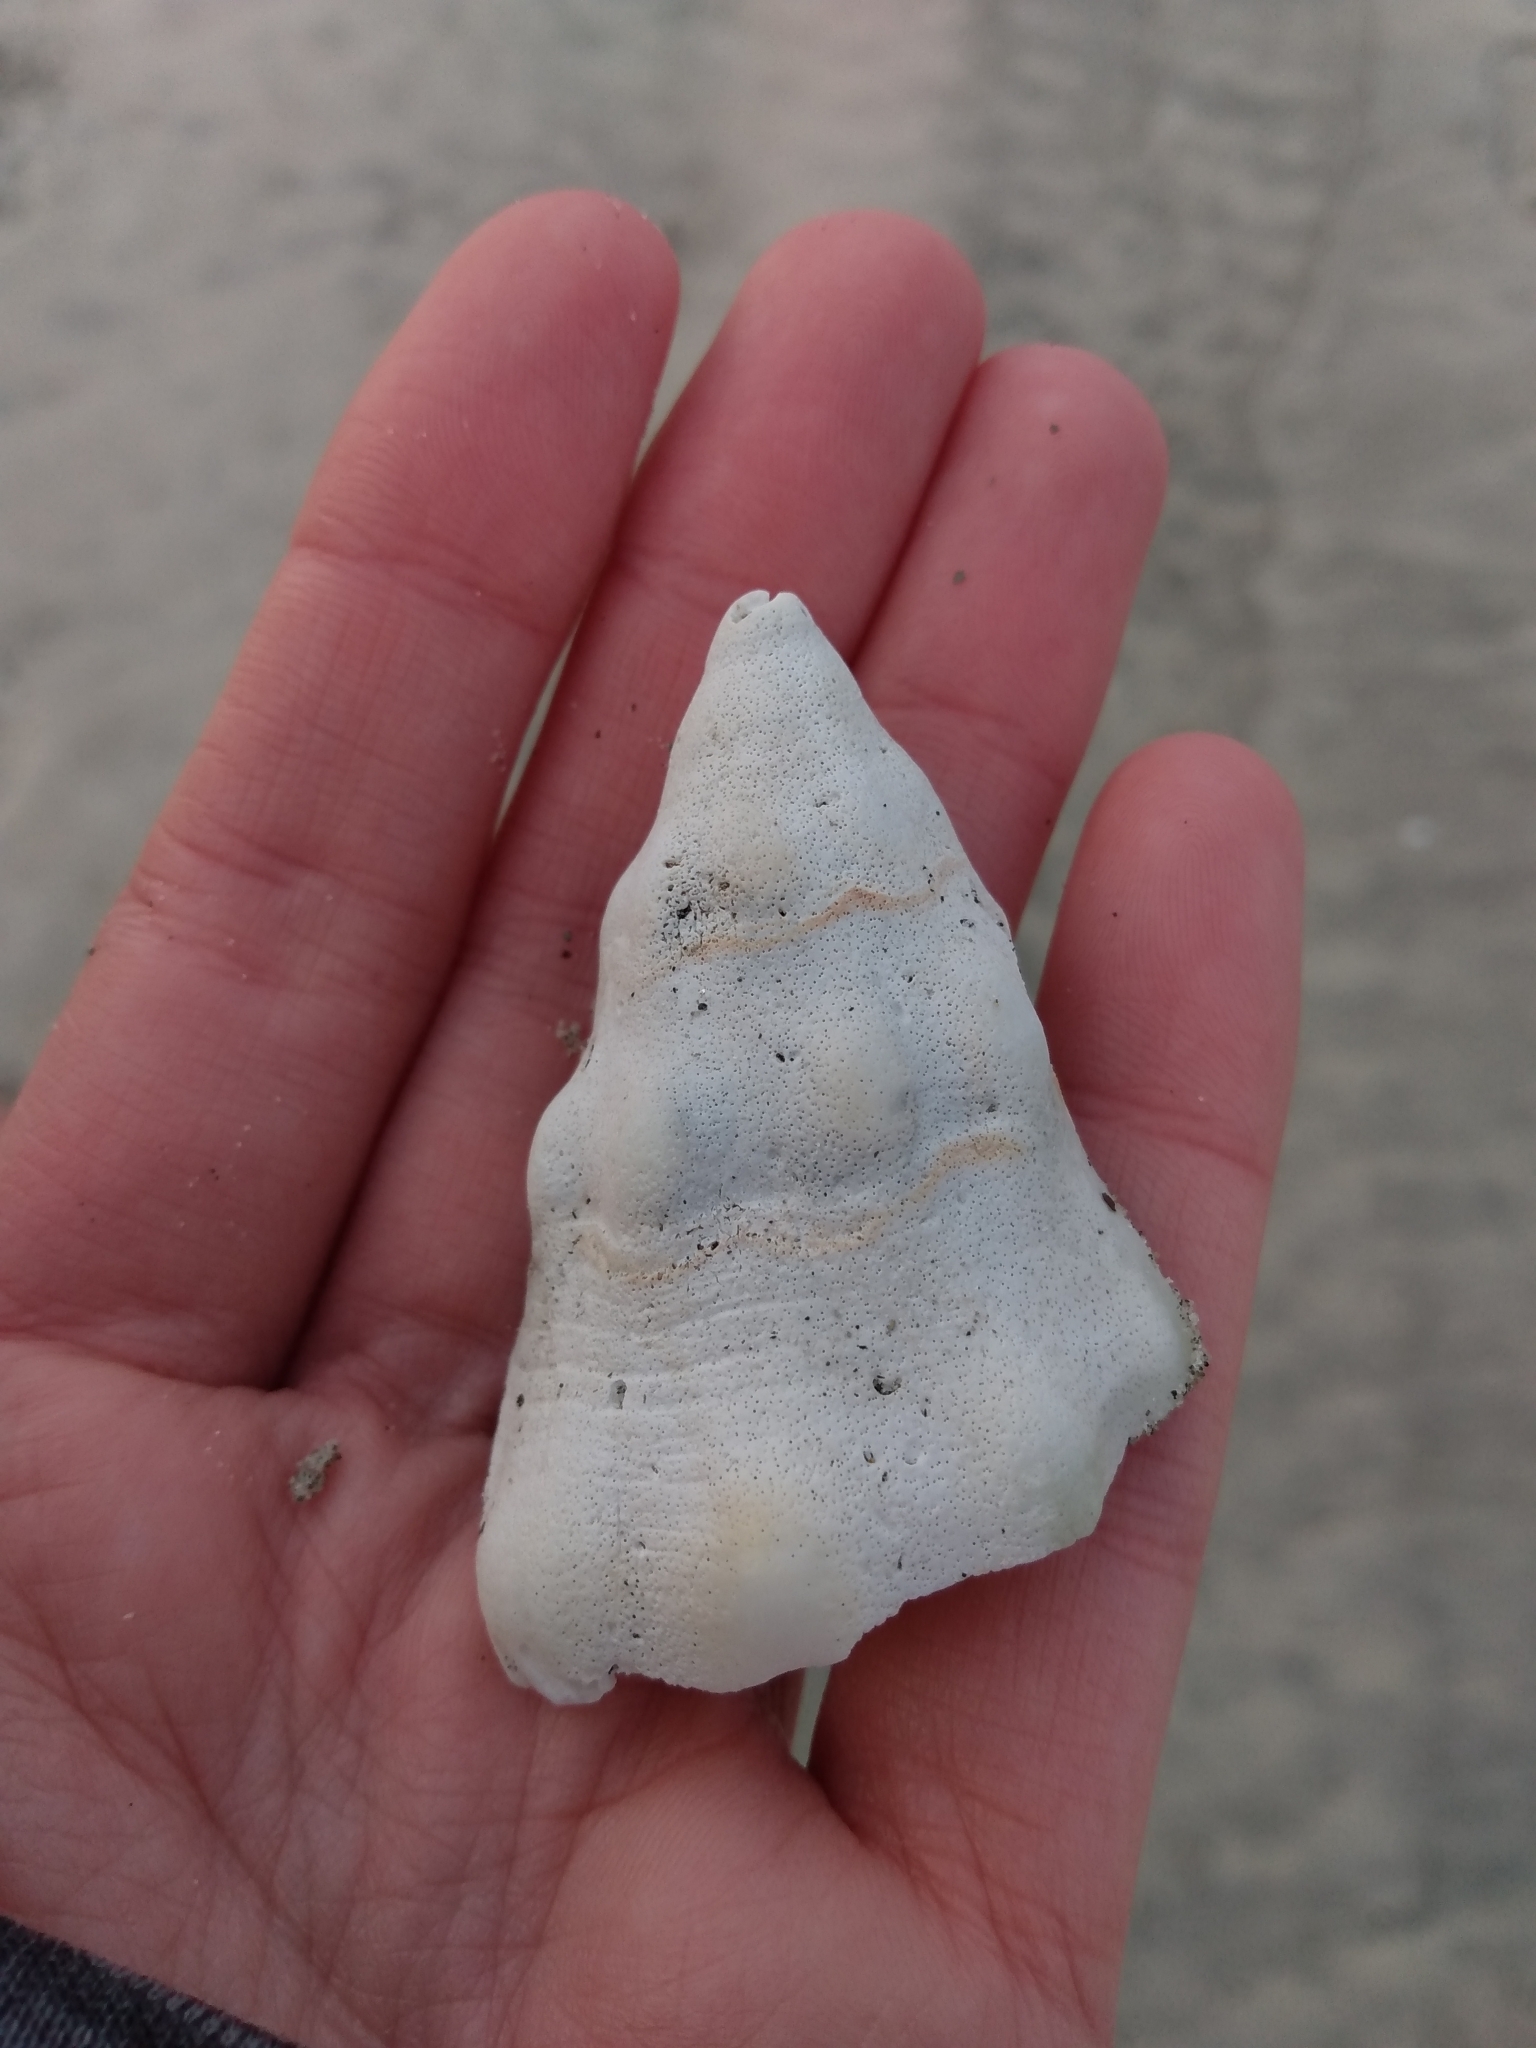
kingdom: Animalia
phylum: Mollusca
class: Gastropoda
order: Neogastropoda
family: Austrosiphonidae
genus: Kelletia
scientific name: Kelletia kelletii
